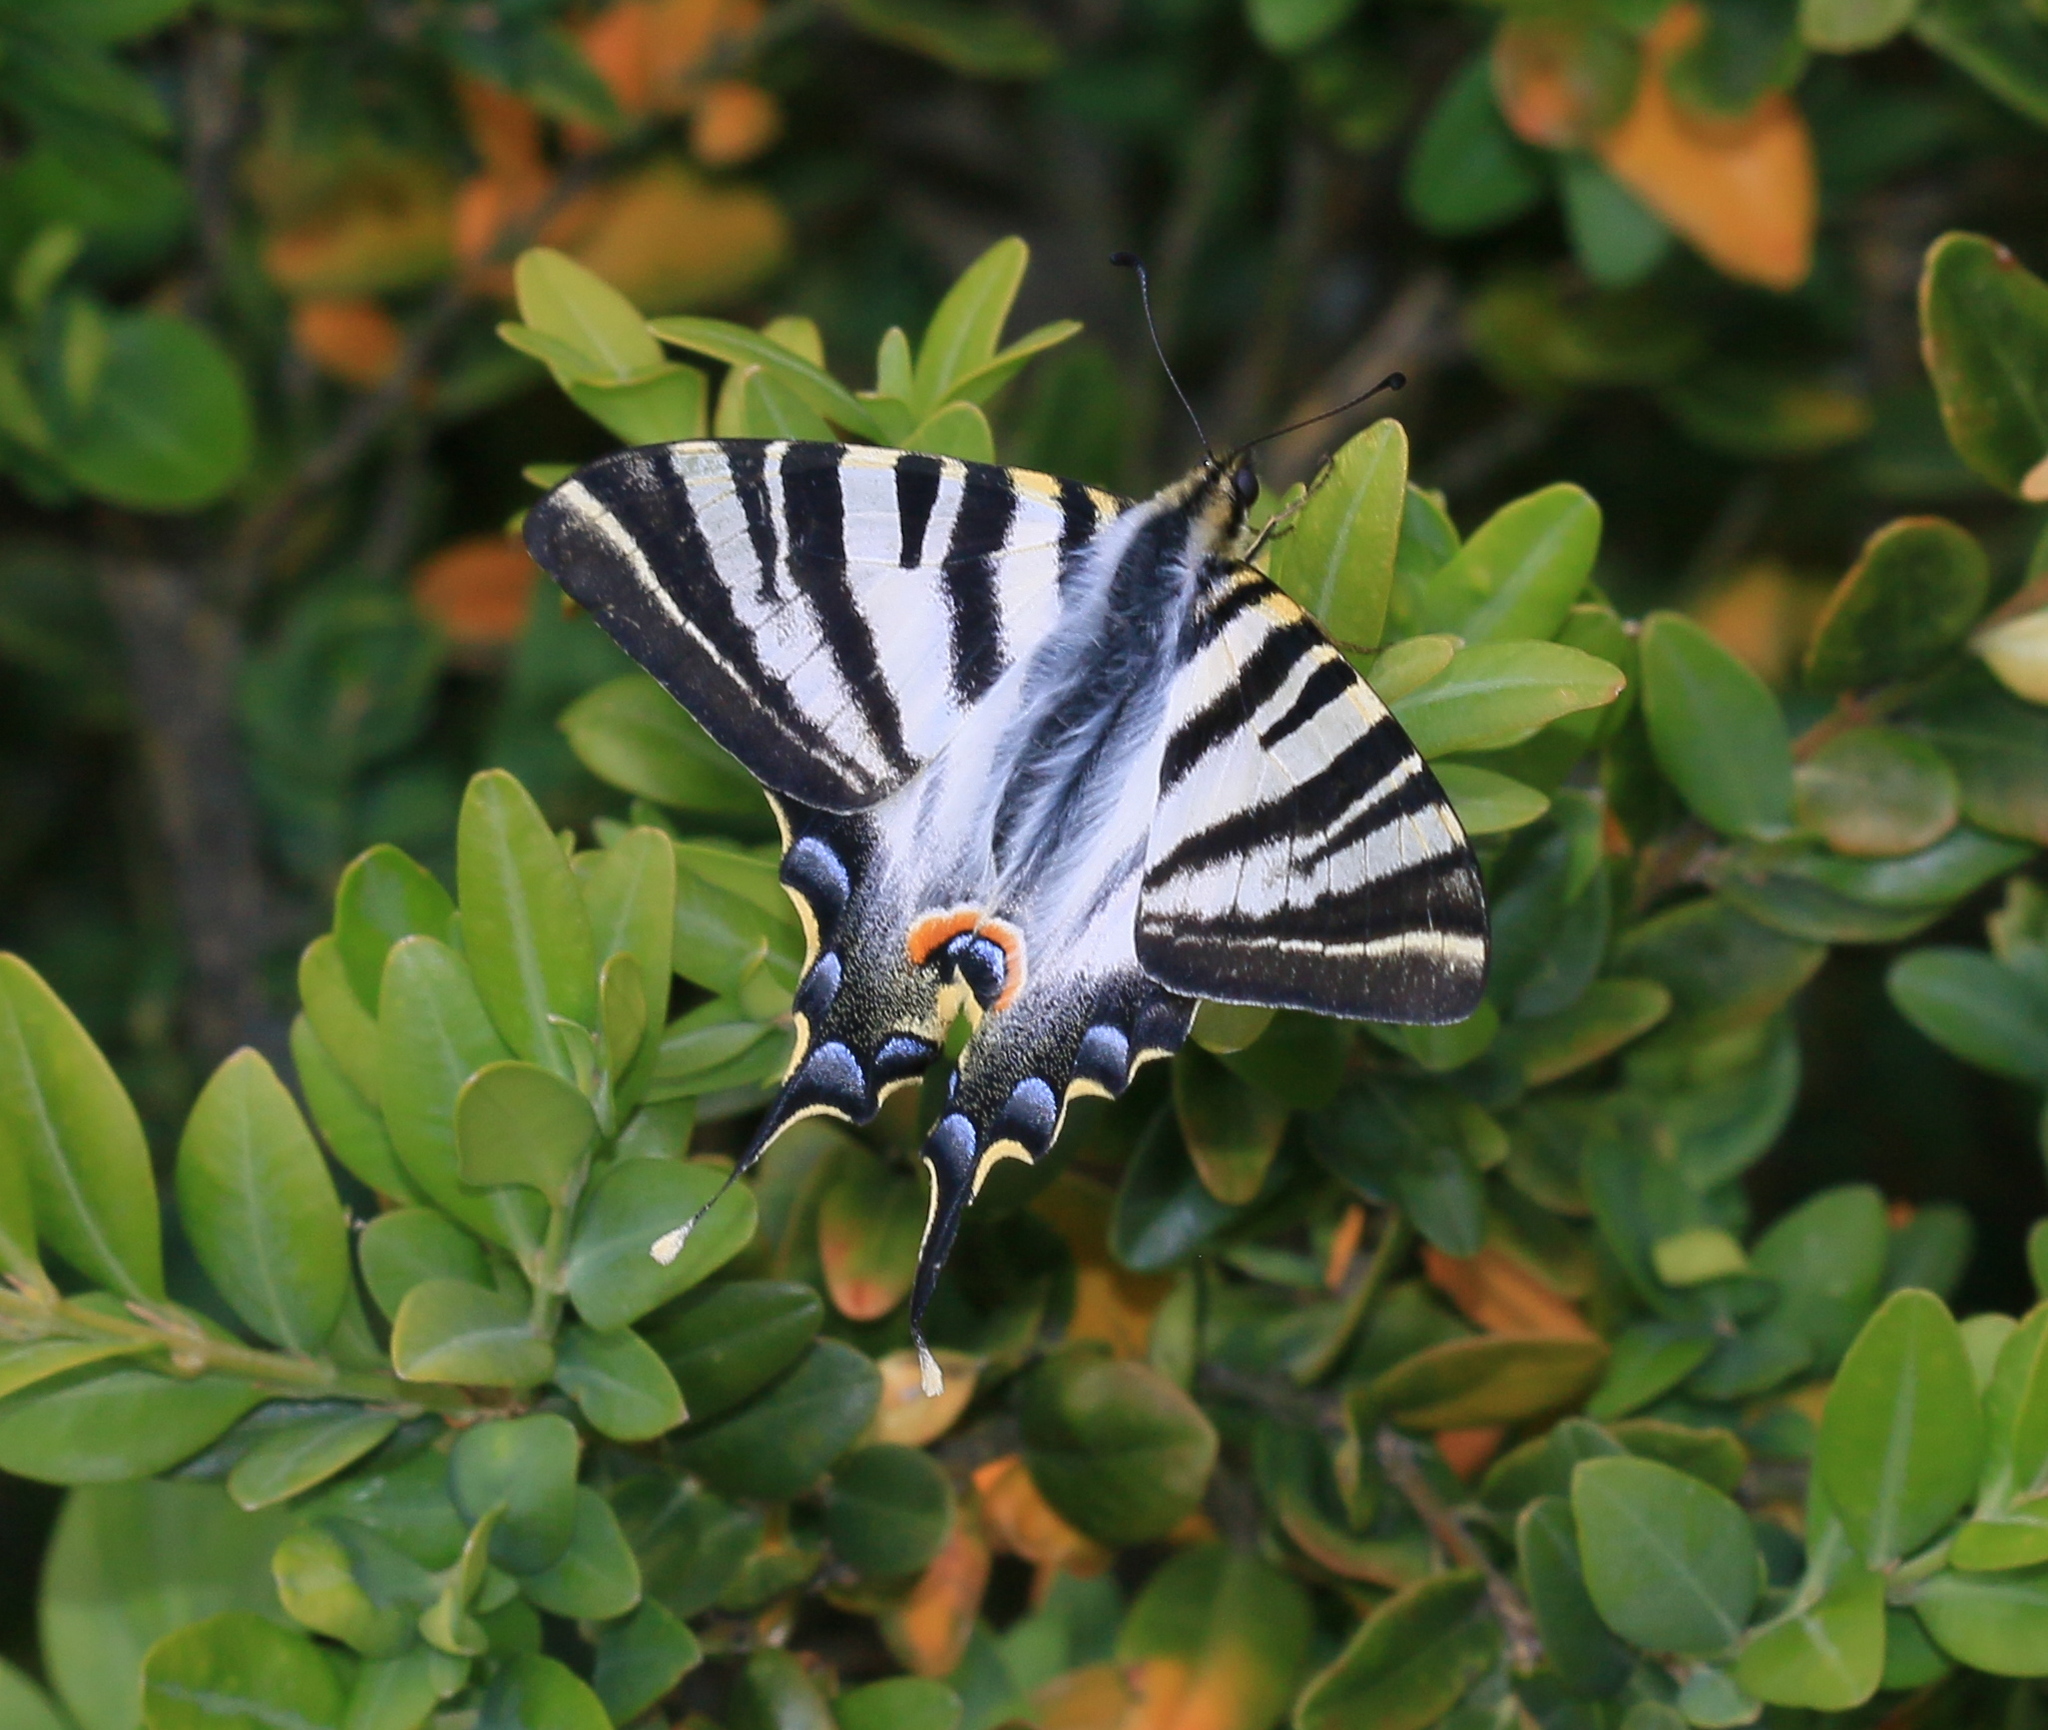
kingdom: Animalia
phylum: Arthropoda
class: Insecta
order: Lepidoptera
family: Papilionidae
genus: Iphiclides
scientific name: Iphiclides feisthamelii
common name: Iberian scarce swallowtail
